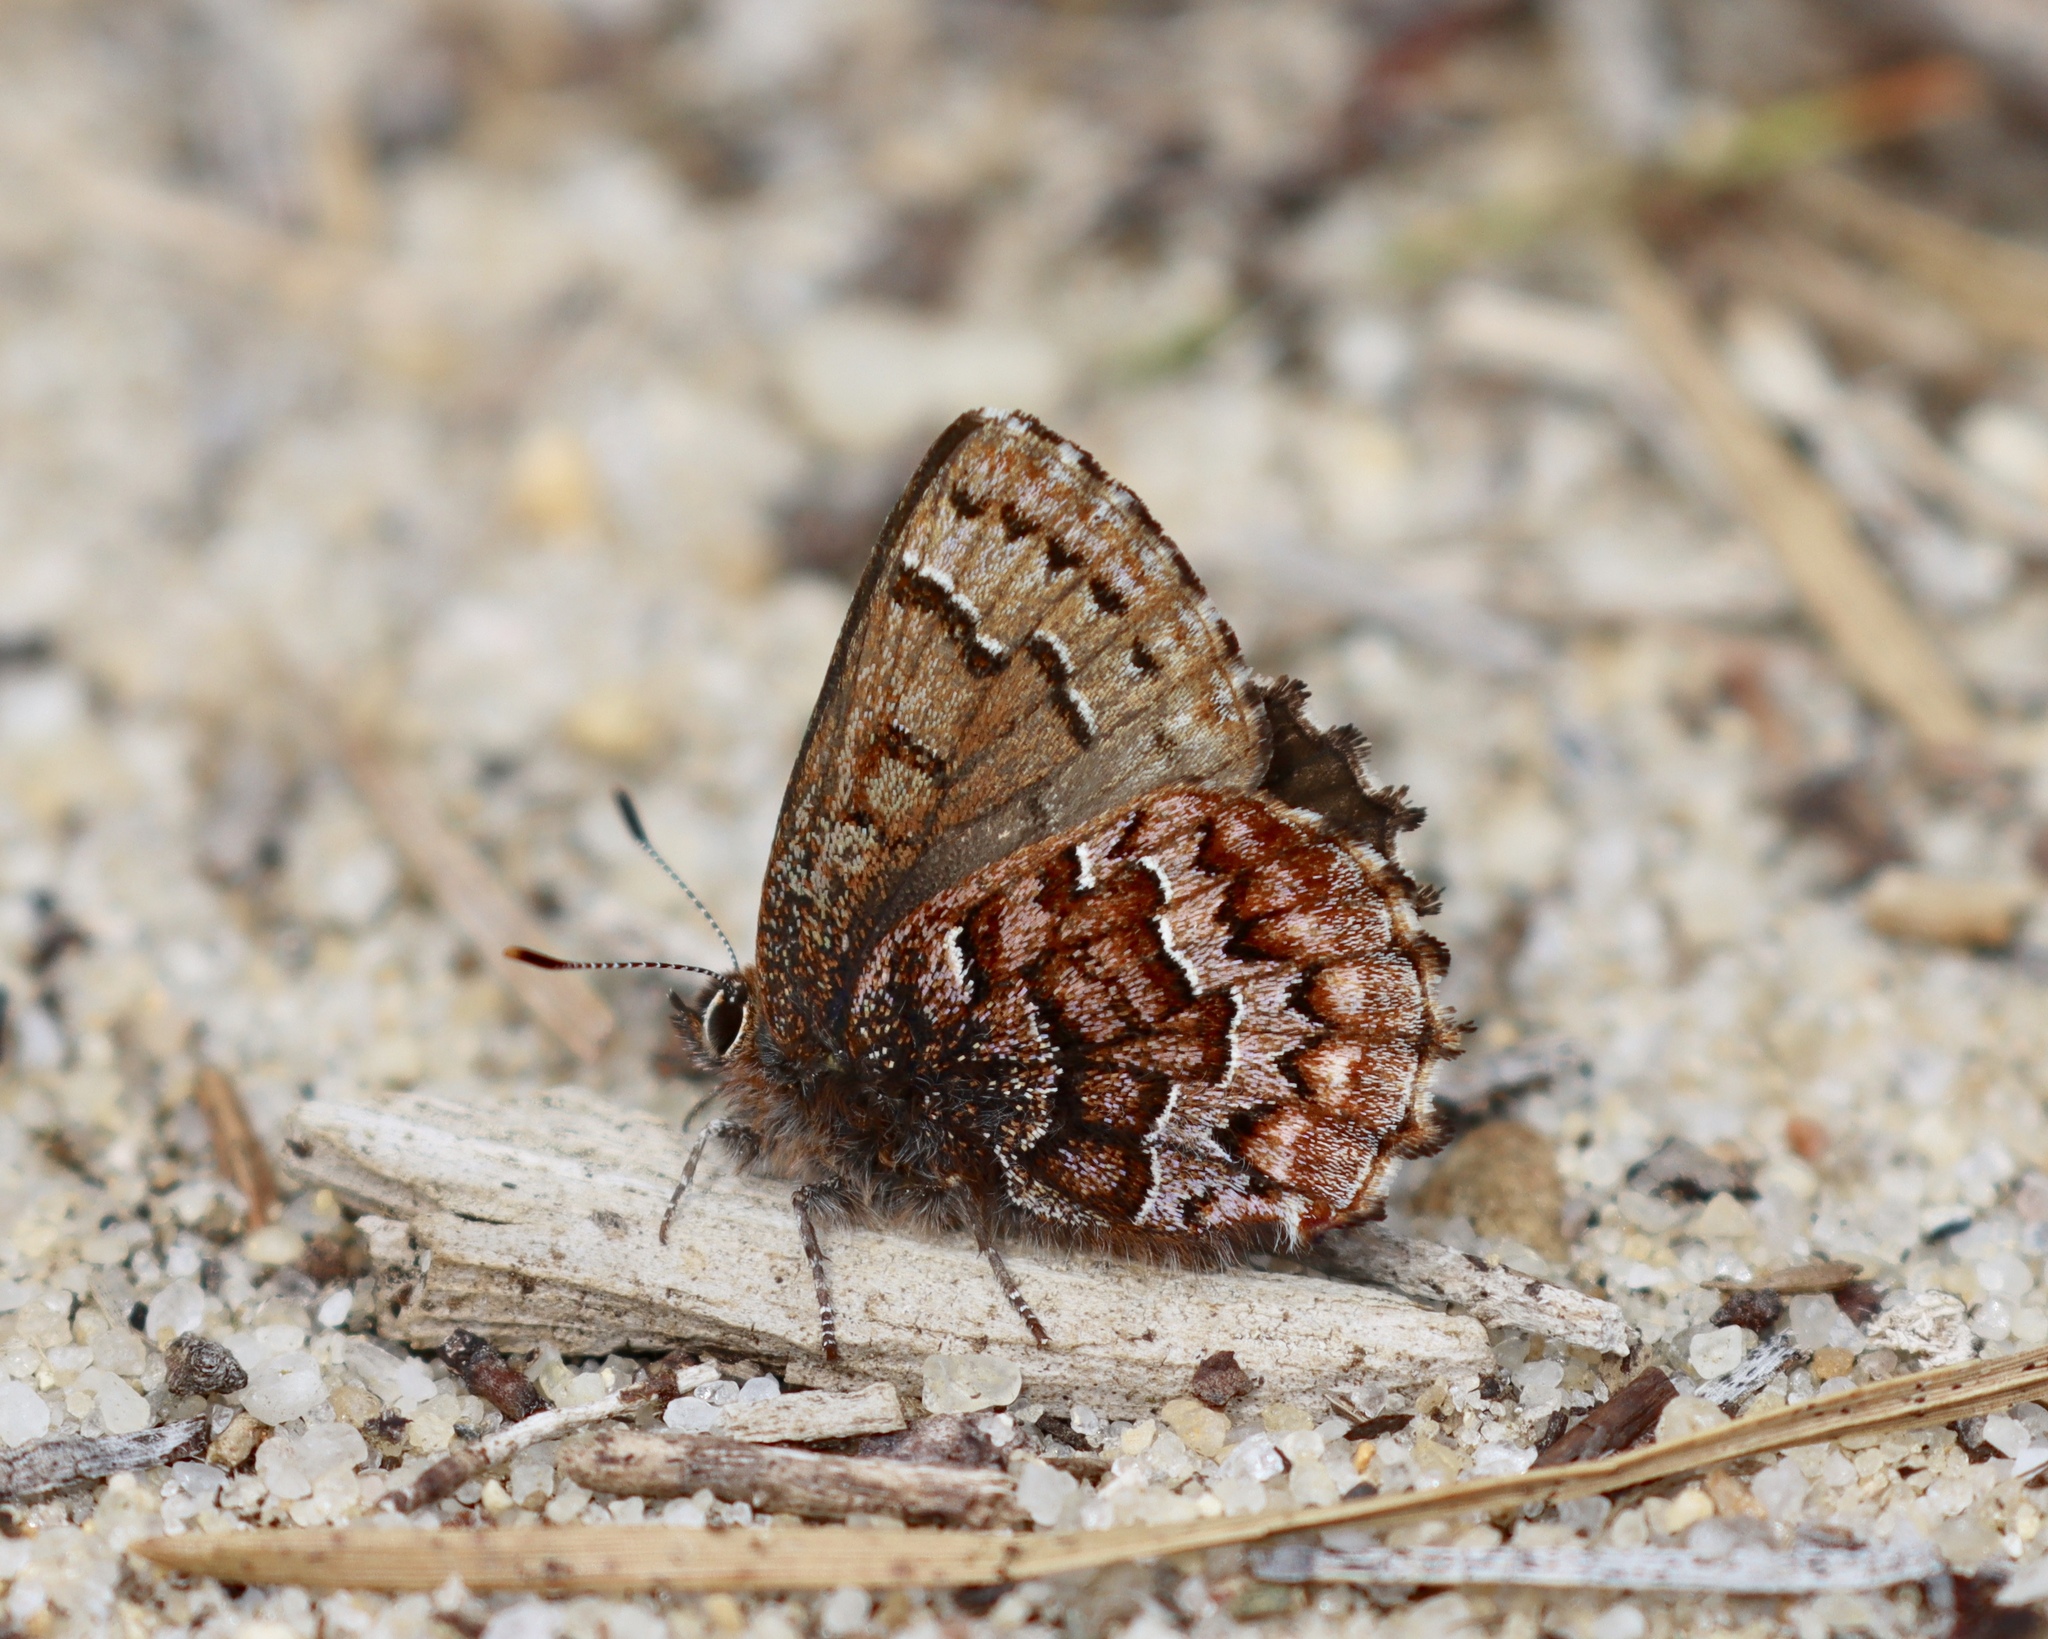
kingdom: Animalia
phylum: Arthropoda
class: Insecta
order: Lepidoptera
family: Lycaenidae
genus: Incisalia
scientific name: Incisalia niphon
